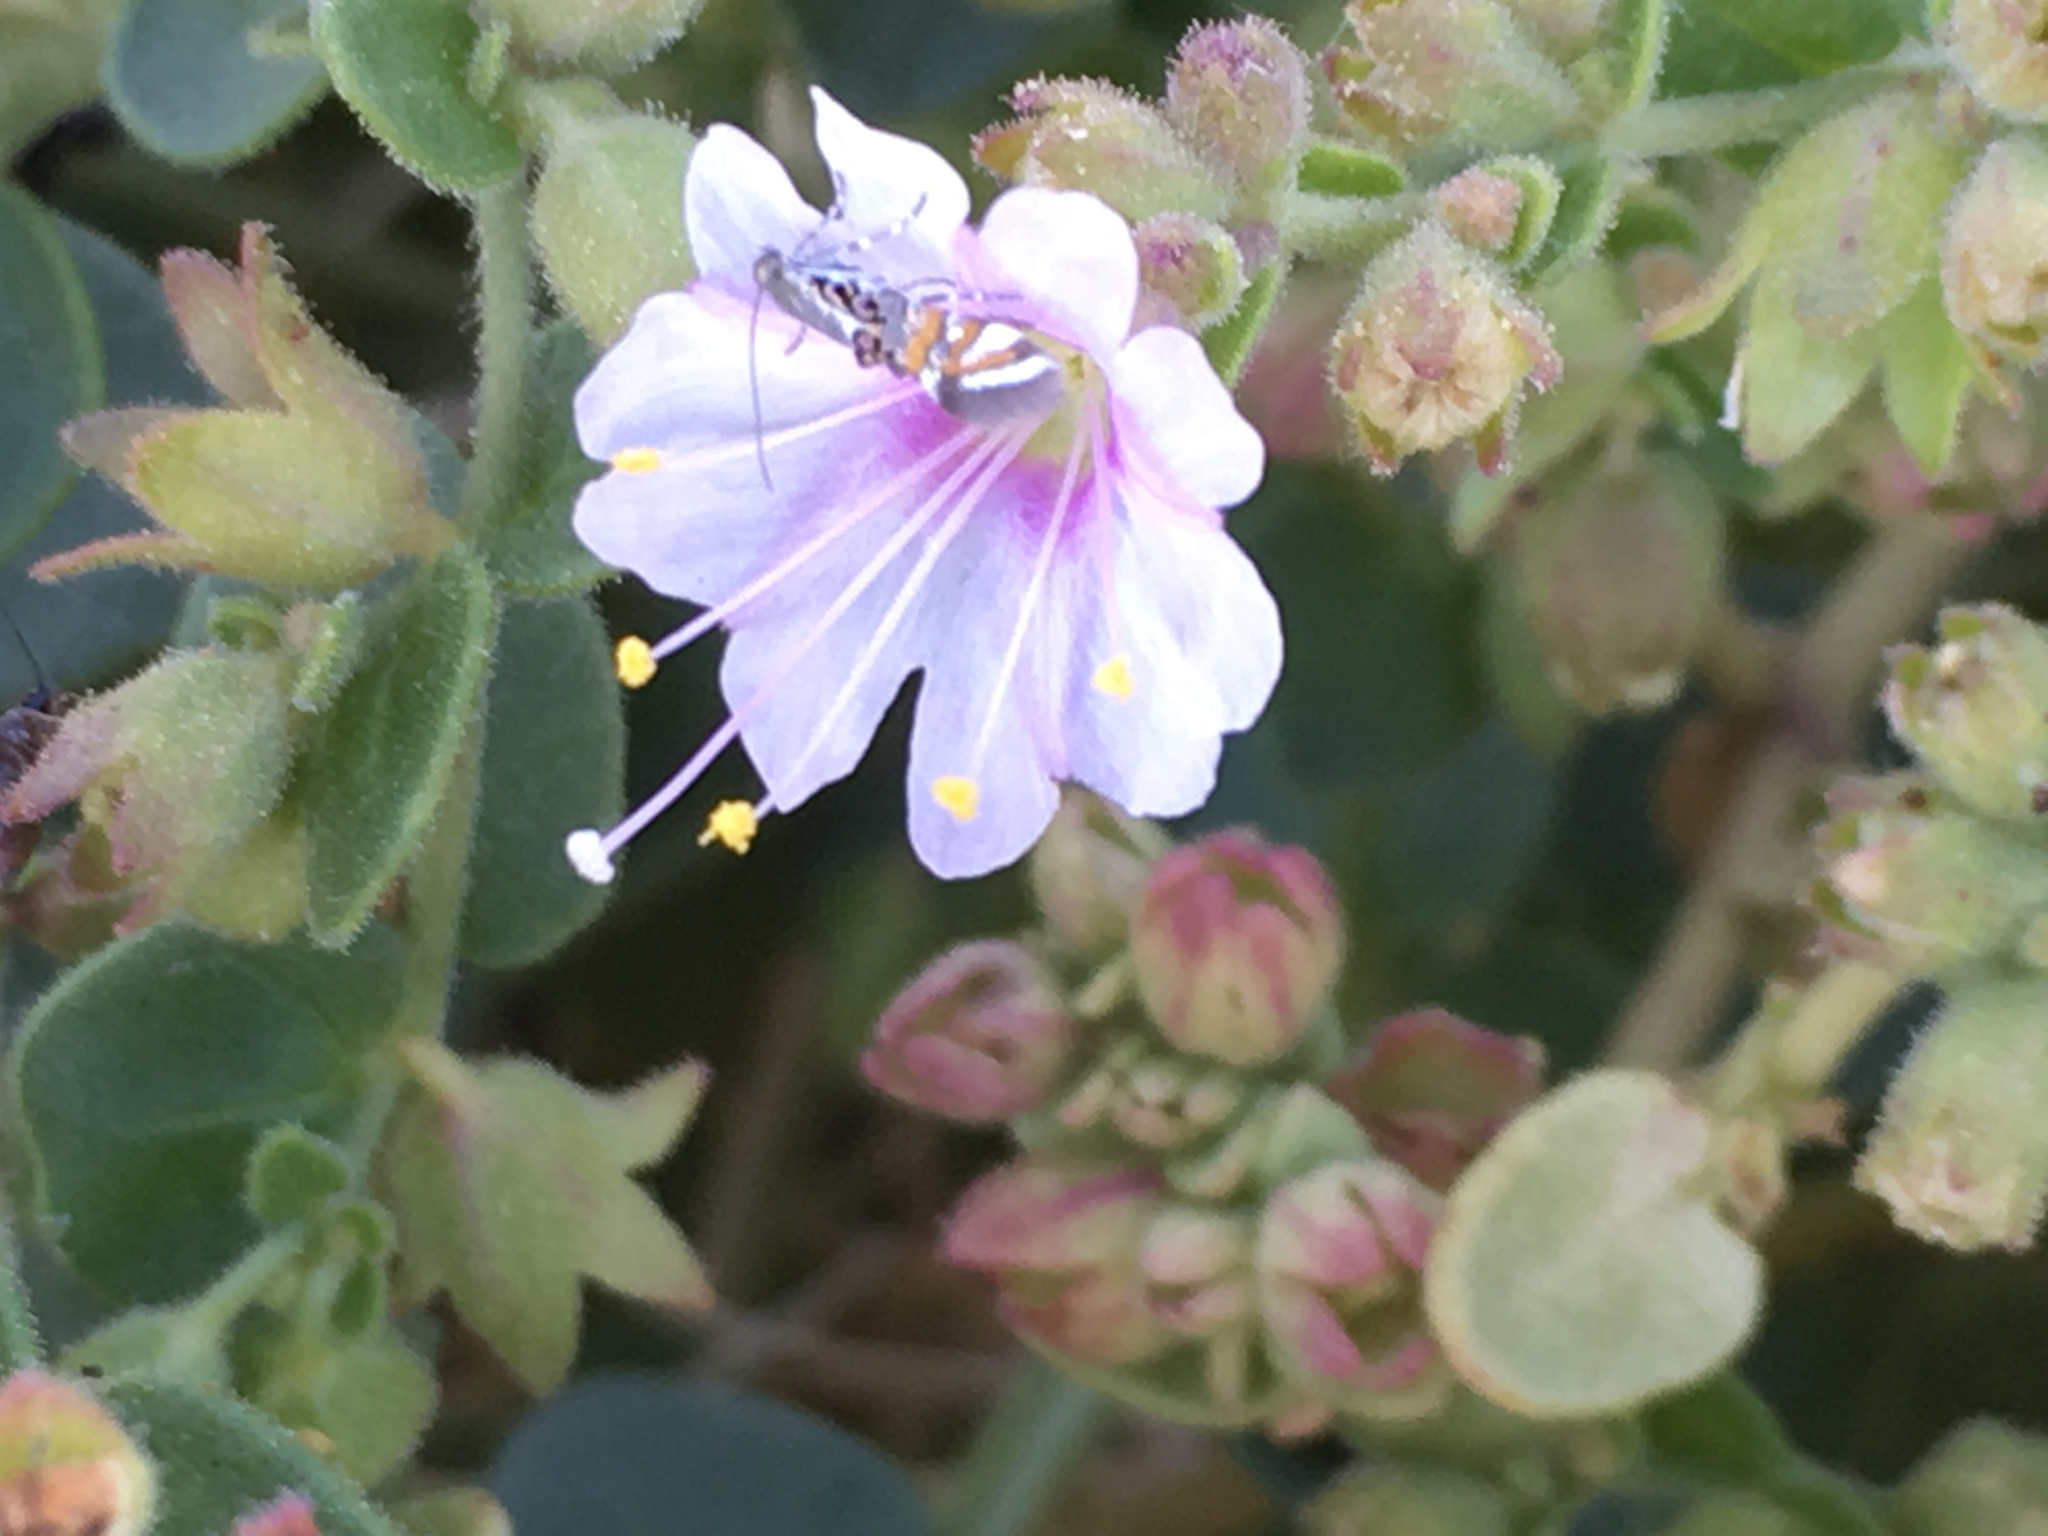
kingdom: Plantae
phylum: Tracheophyta
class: Magnoliopsida
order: Caryophyllales
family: Nyctaginaceae
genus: Mirabilis
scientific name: Mirabilis laevis
